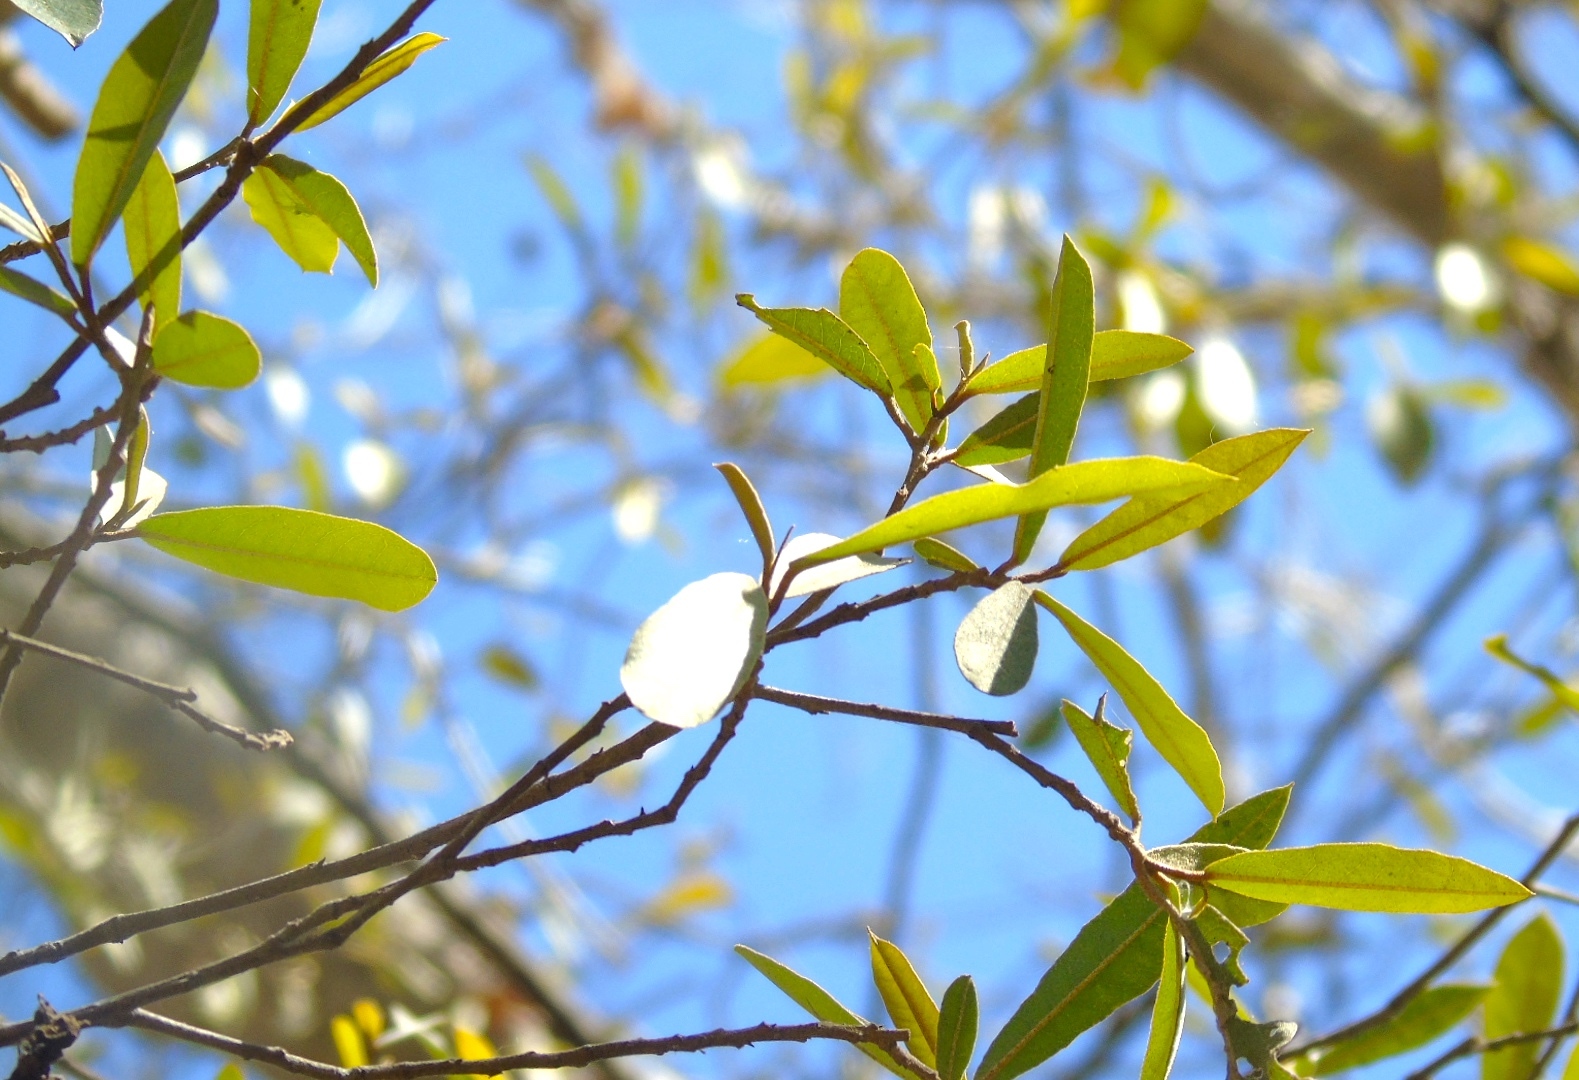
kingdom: Plantae
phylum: Tracheophyta
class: Magnoliopsida
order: Brassicales
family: Capparaceae
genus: Quadrella
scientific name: Quadrella indica
